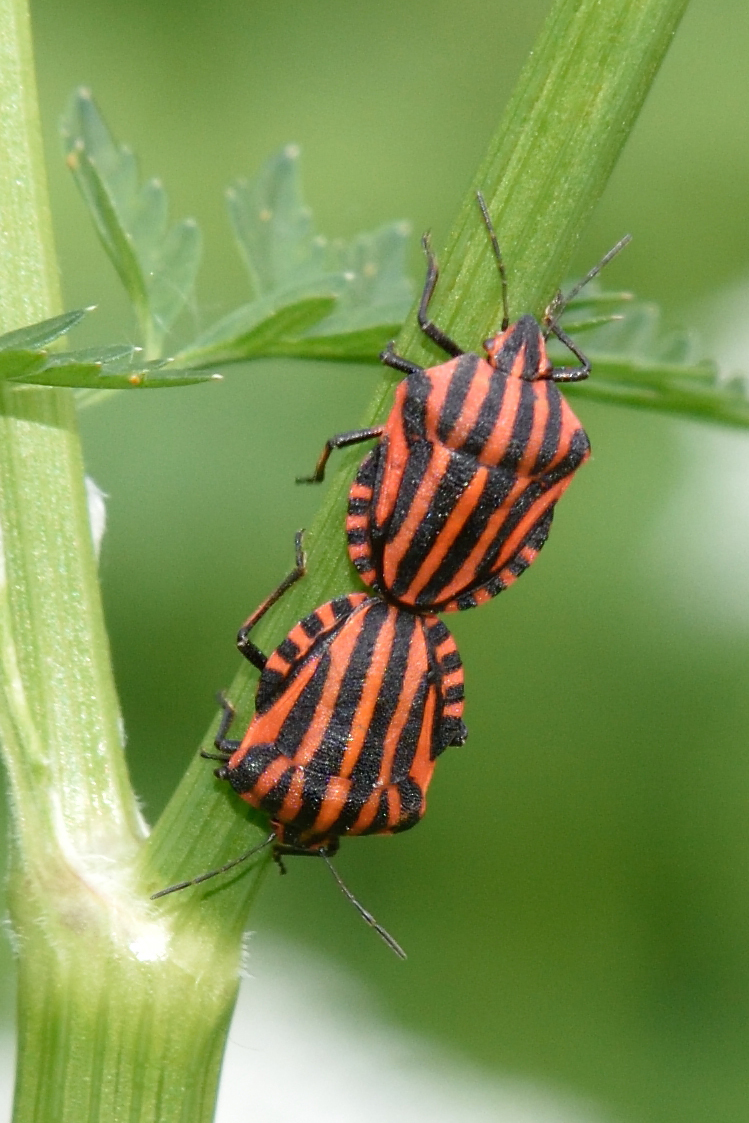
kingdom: Animalia
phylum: Arthropoda
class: Insecta
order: Hemiptera
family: Pentatomidae
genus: Graphosoma
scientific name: Graphosoma italicum
